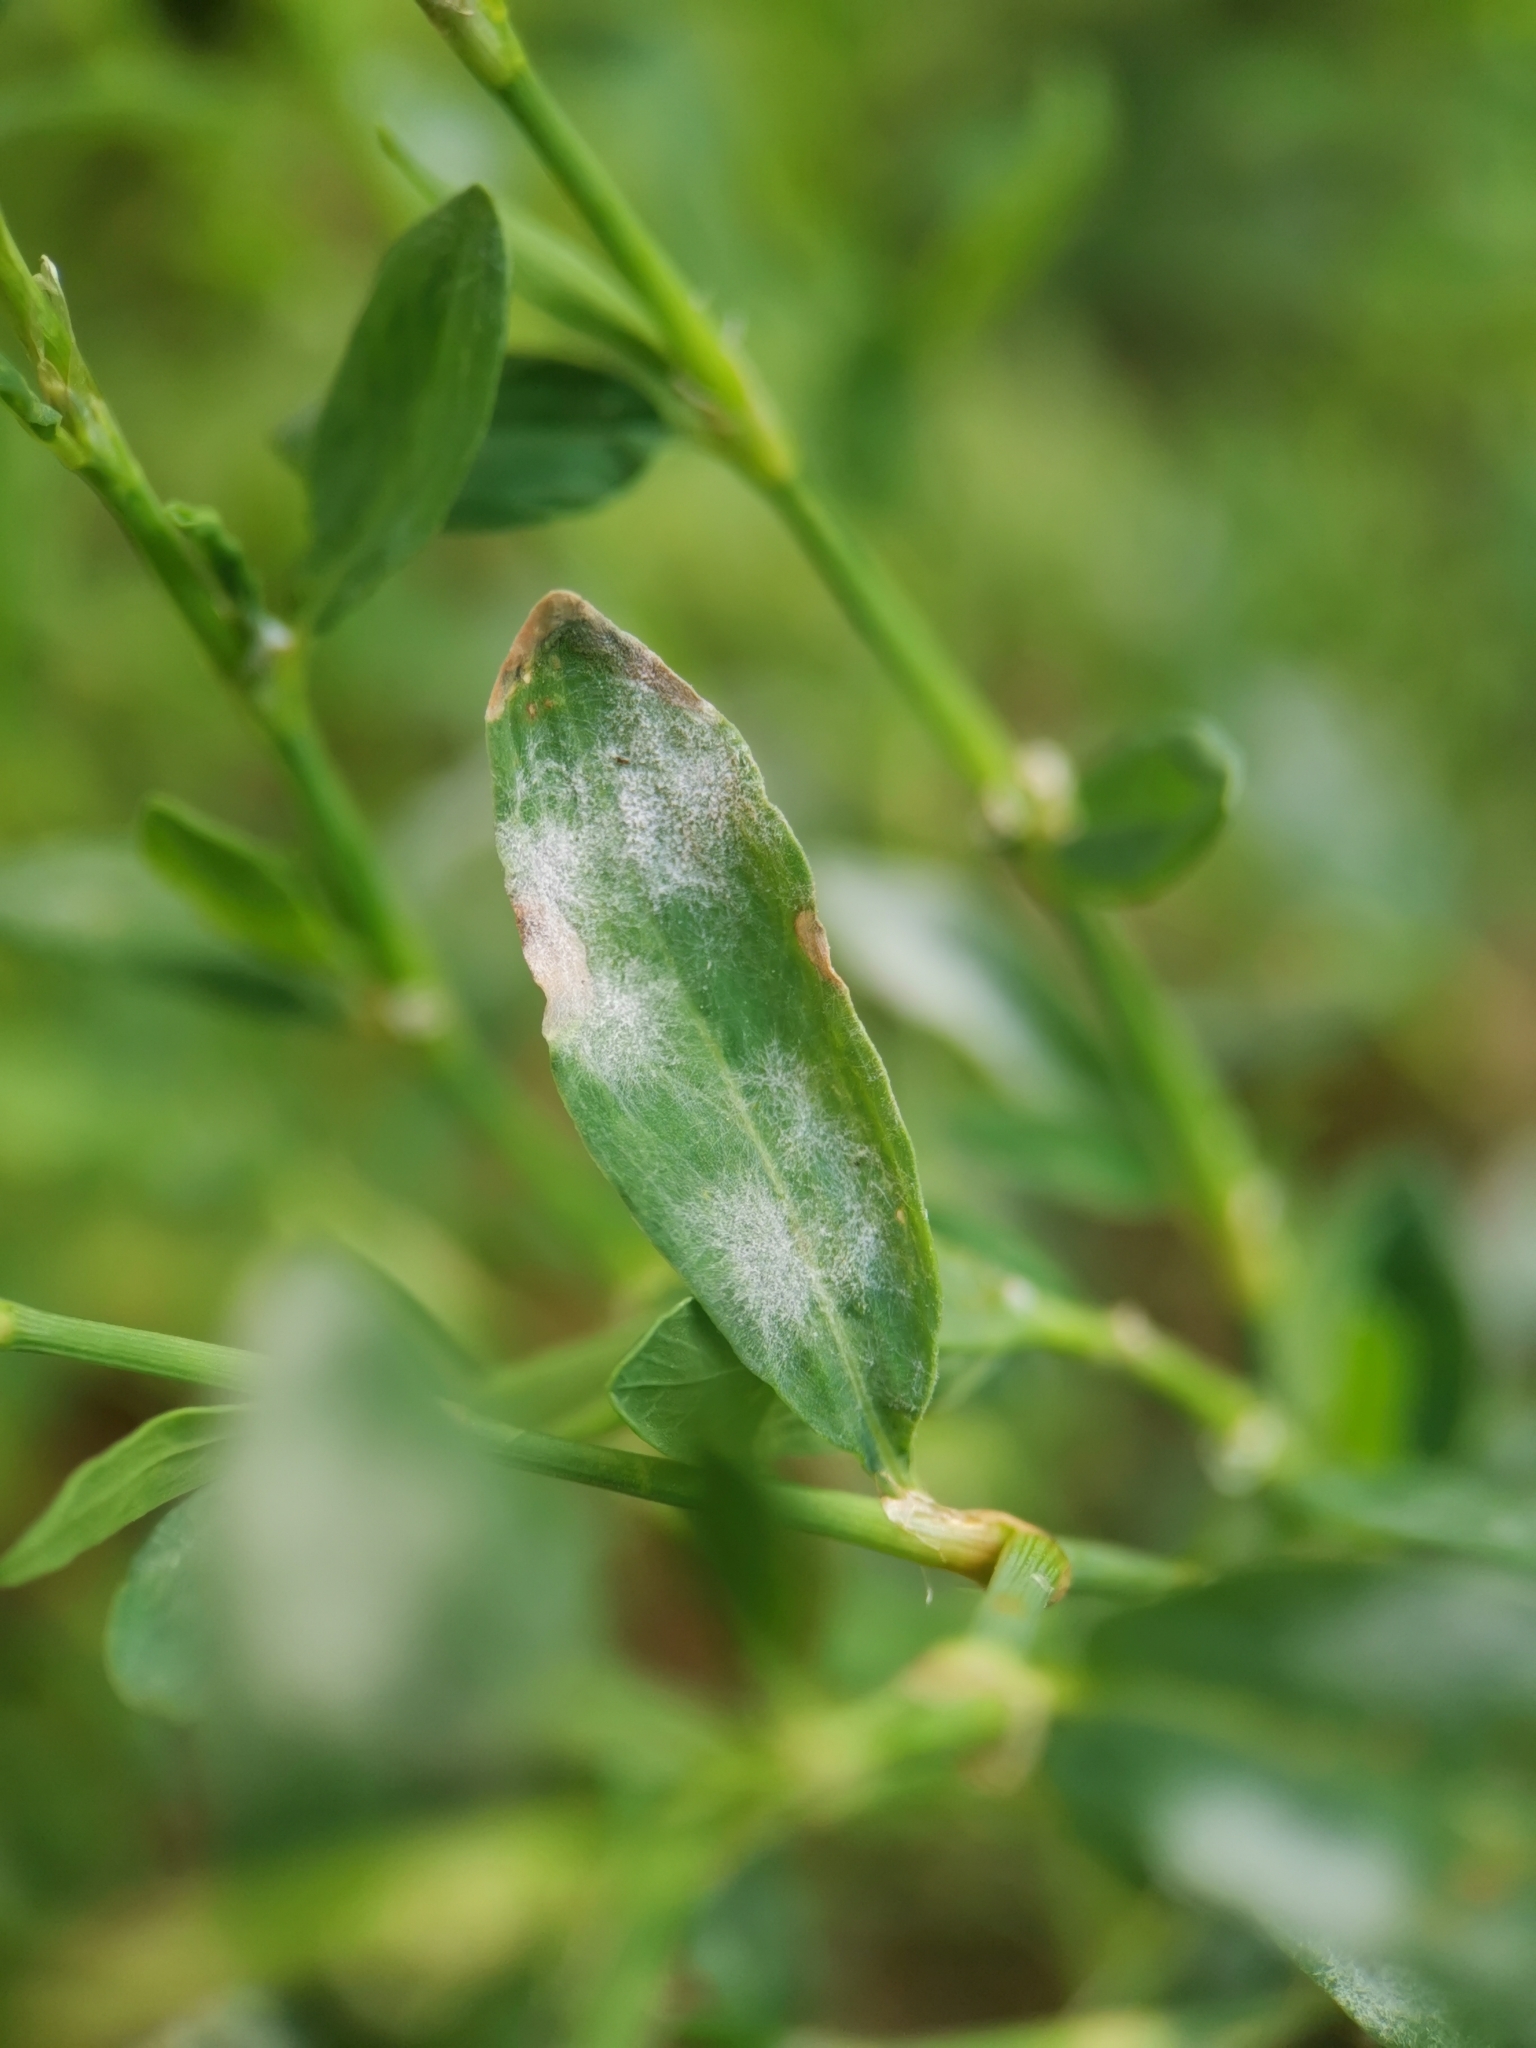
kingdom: Fungi
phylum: Ascomycota
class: Leotiomycetes
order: Helotiales
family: Erysiphaceae
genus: Erysiphe
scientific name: Erysiphe polygoni
